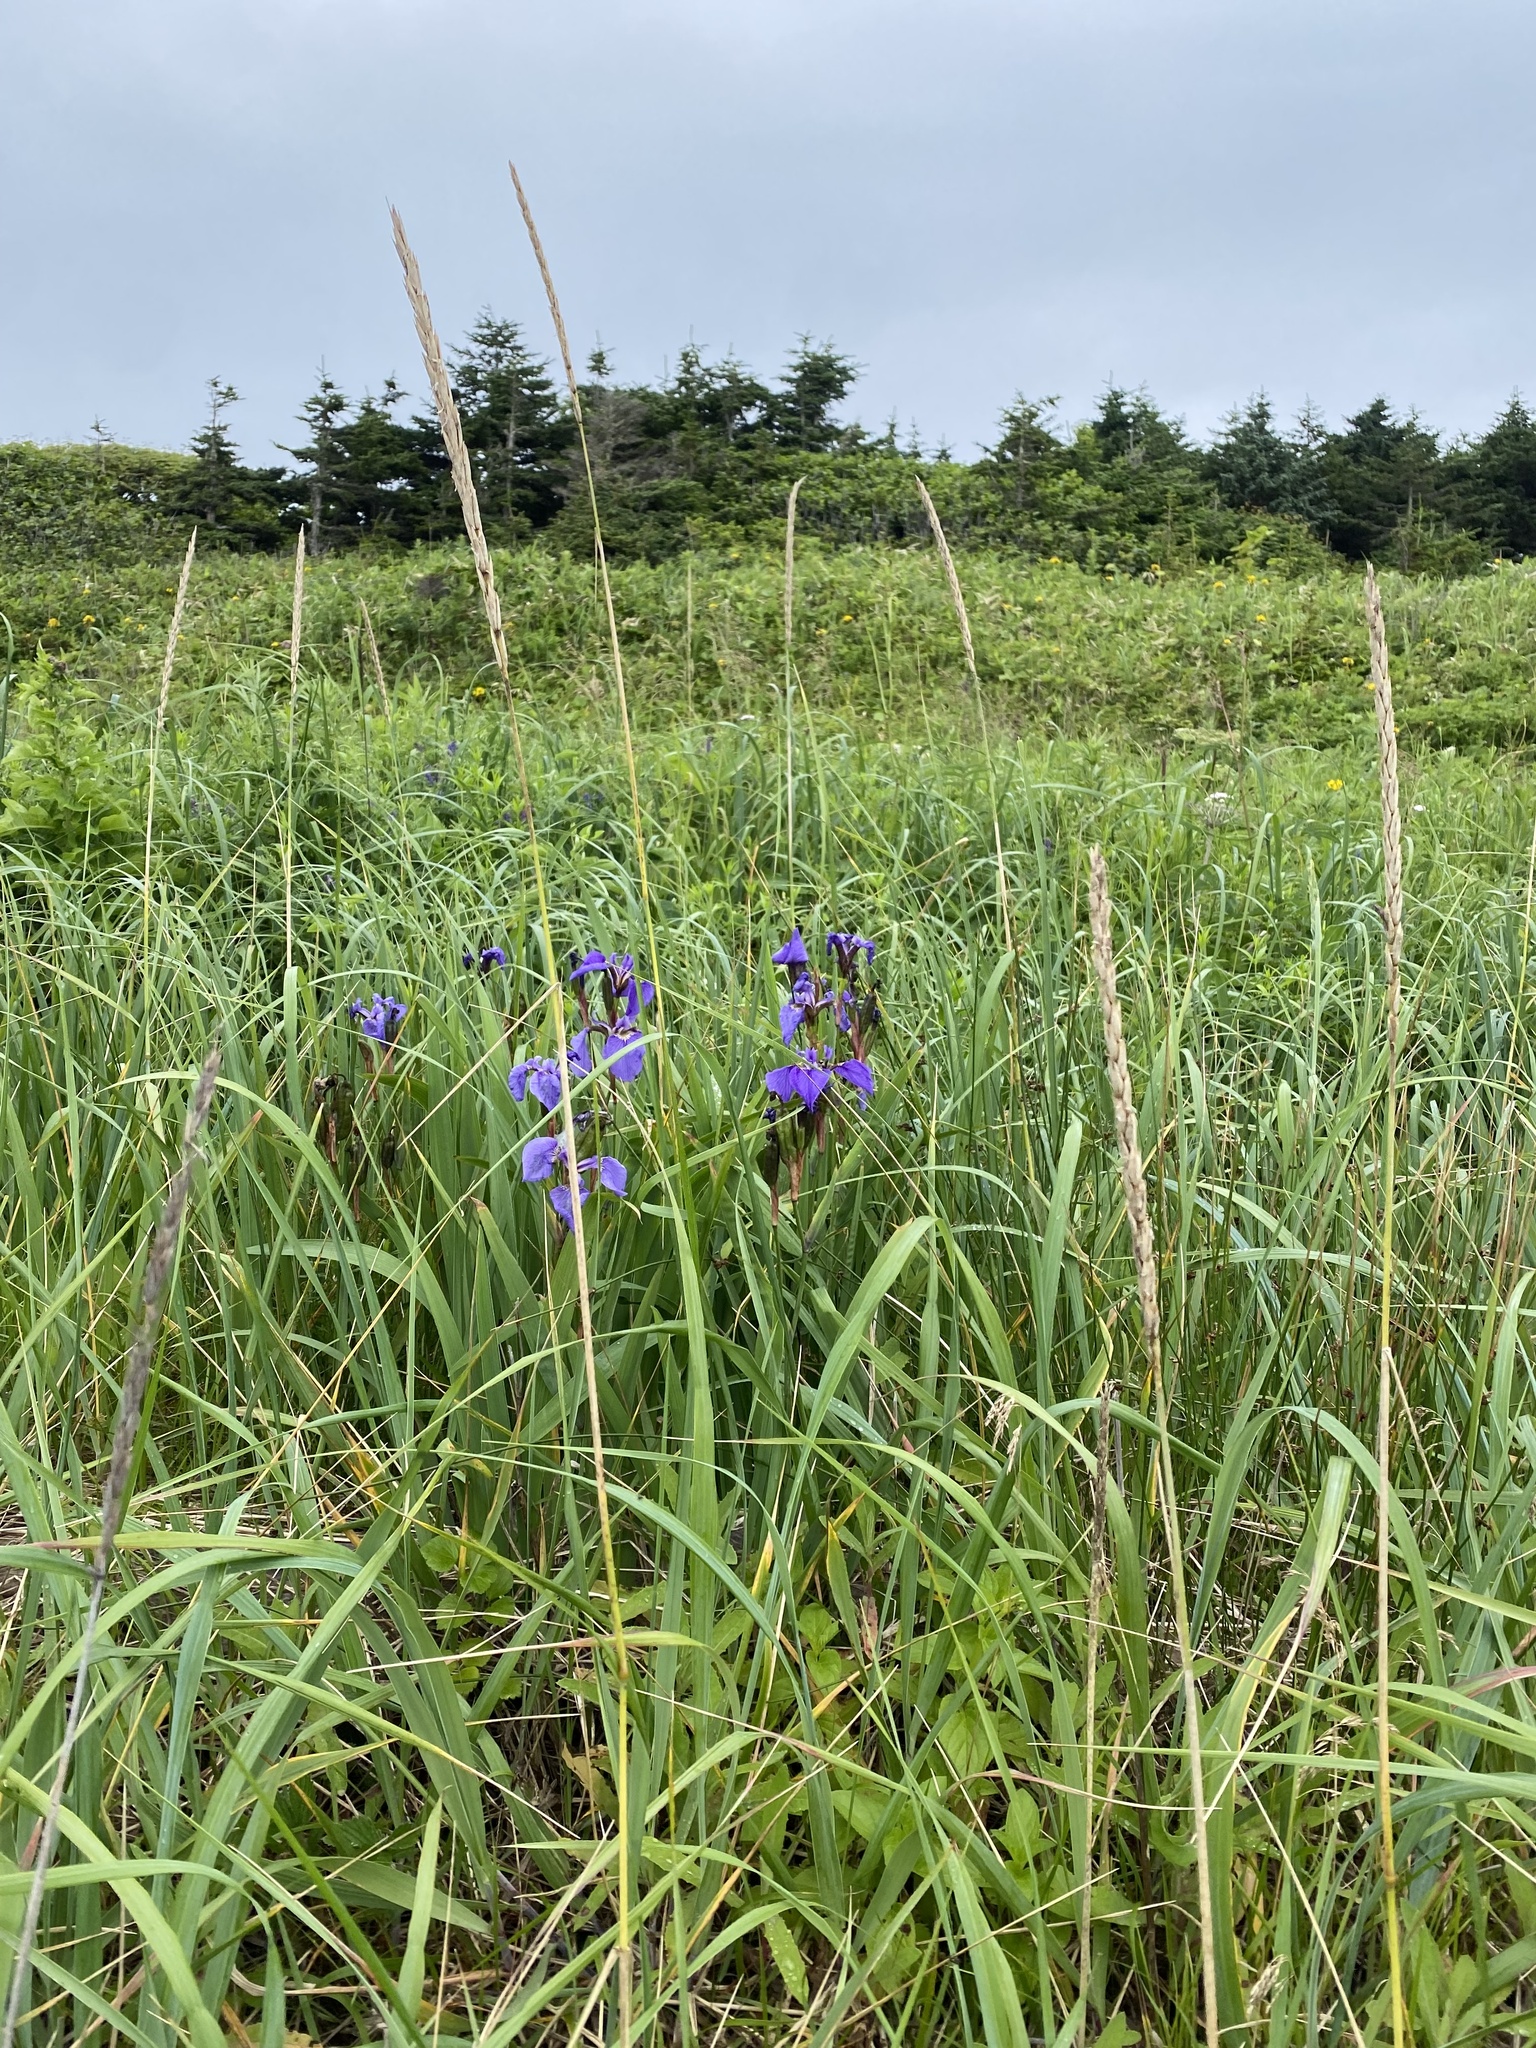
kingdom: Plantae
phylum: Tracheophyta
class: Liliopsida
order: Asparagales
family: Iridaceae
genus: Iris
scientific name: Iris setosa
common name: Arctic blue flag
